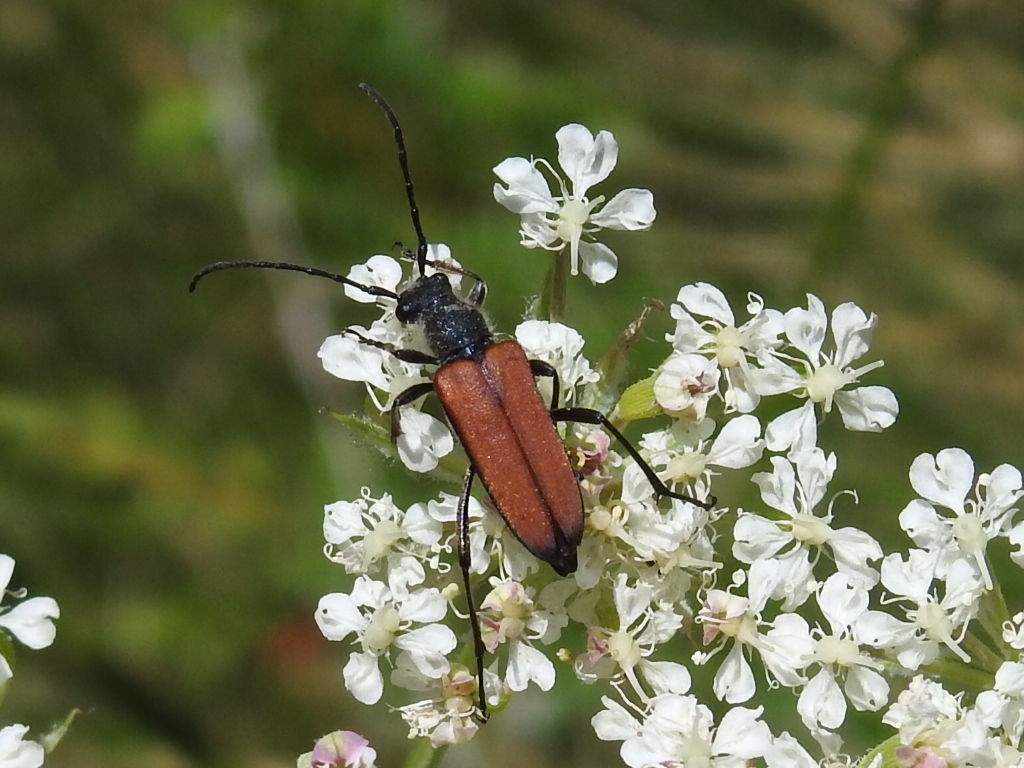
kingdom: Animalia
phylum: Arthropoda
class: Insecta
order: Coleoptera
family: Cerambycidae
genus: Anastrangalia
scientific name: Anastrangalia dubia
